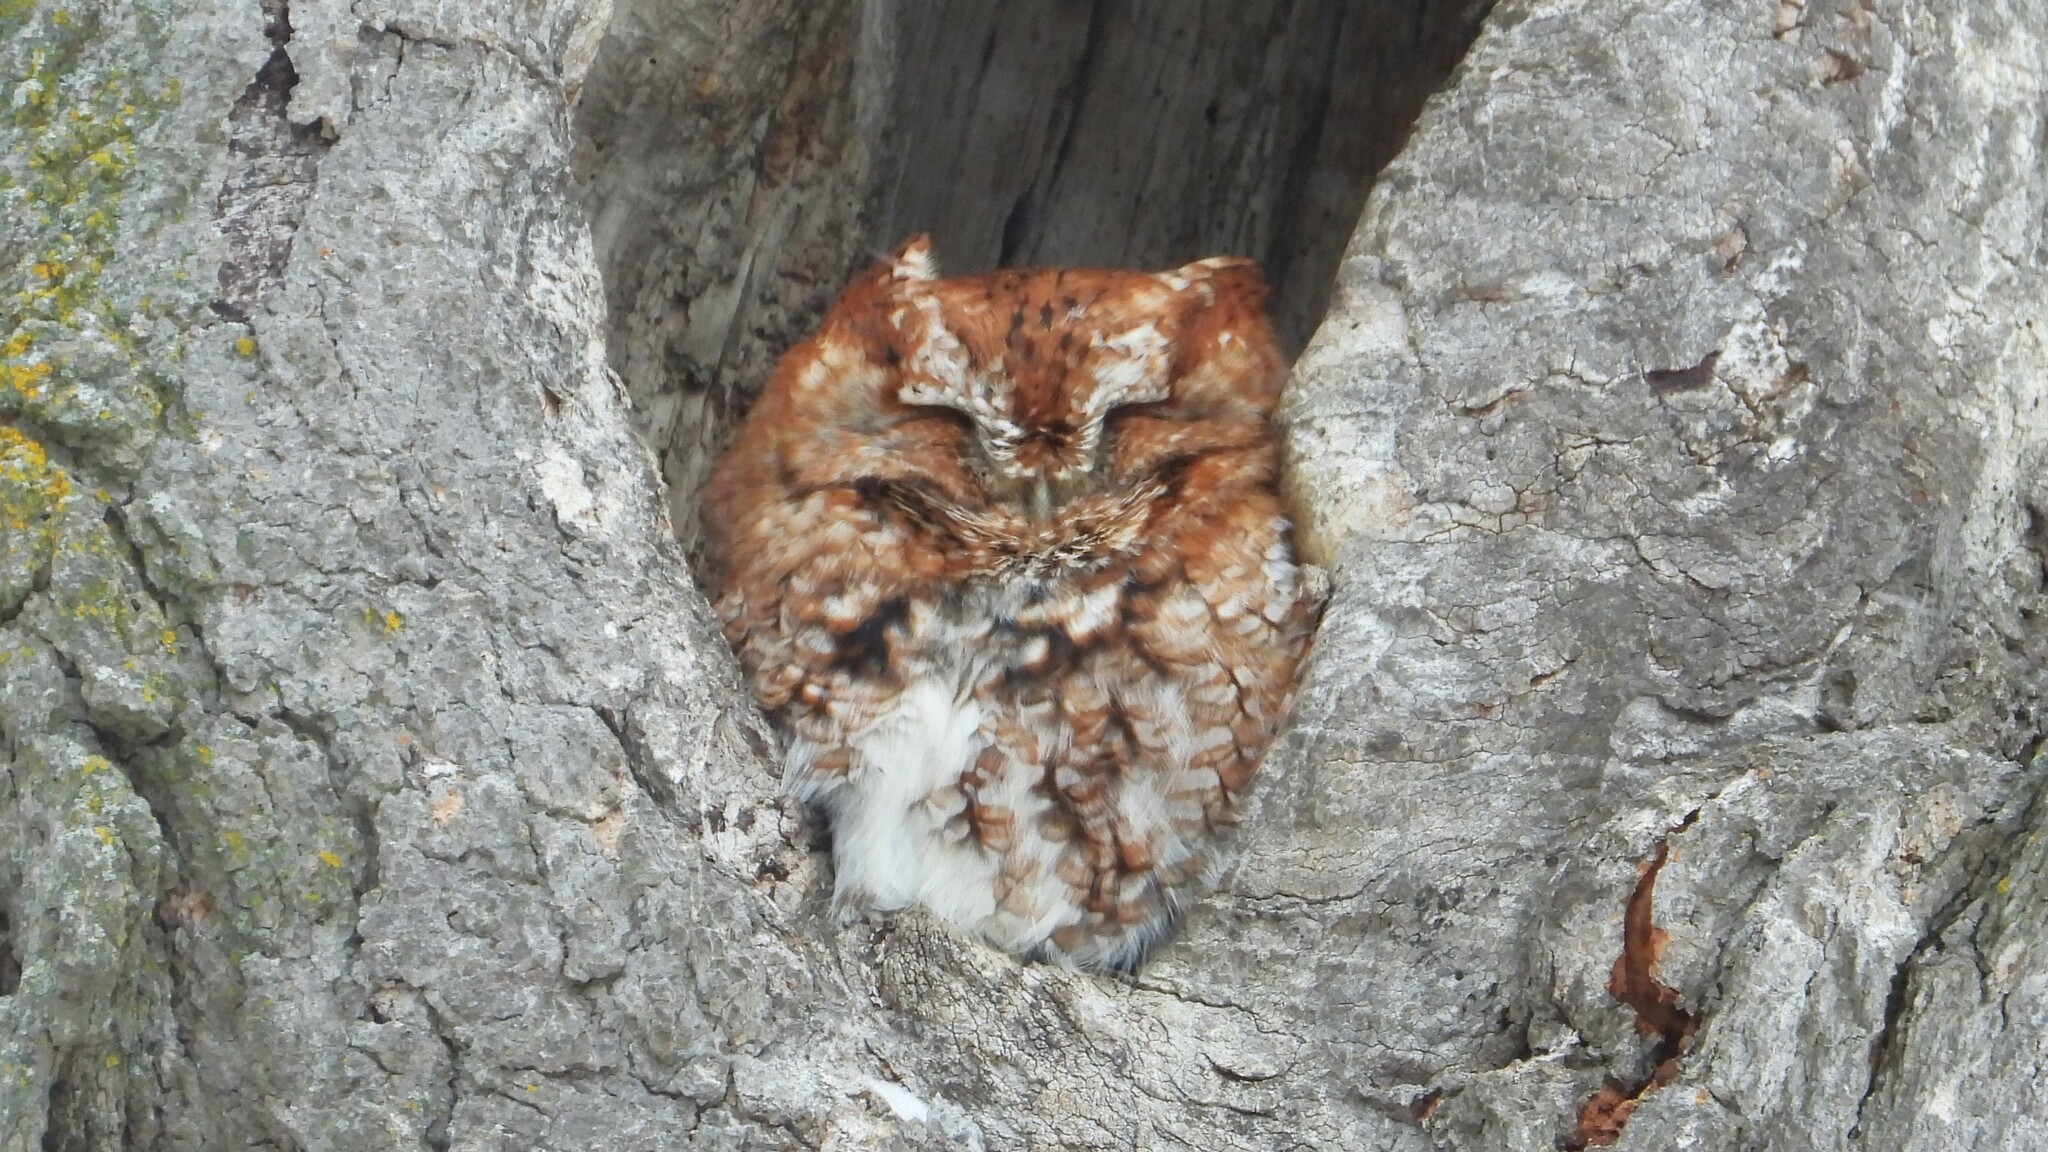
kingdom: Animalia
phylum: Chordata
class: Aves
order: Strigiformes
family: Strigidae
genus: Megascops
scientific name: Megascops asio
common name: Eastern screech-owl
